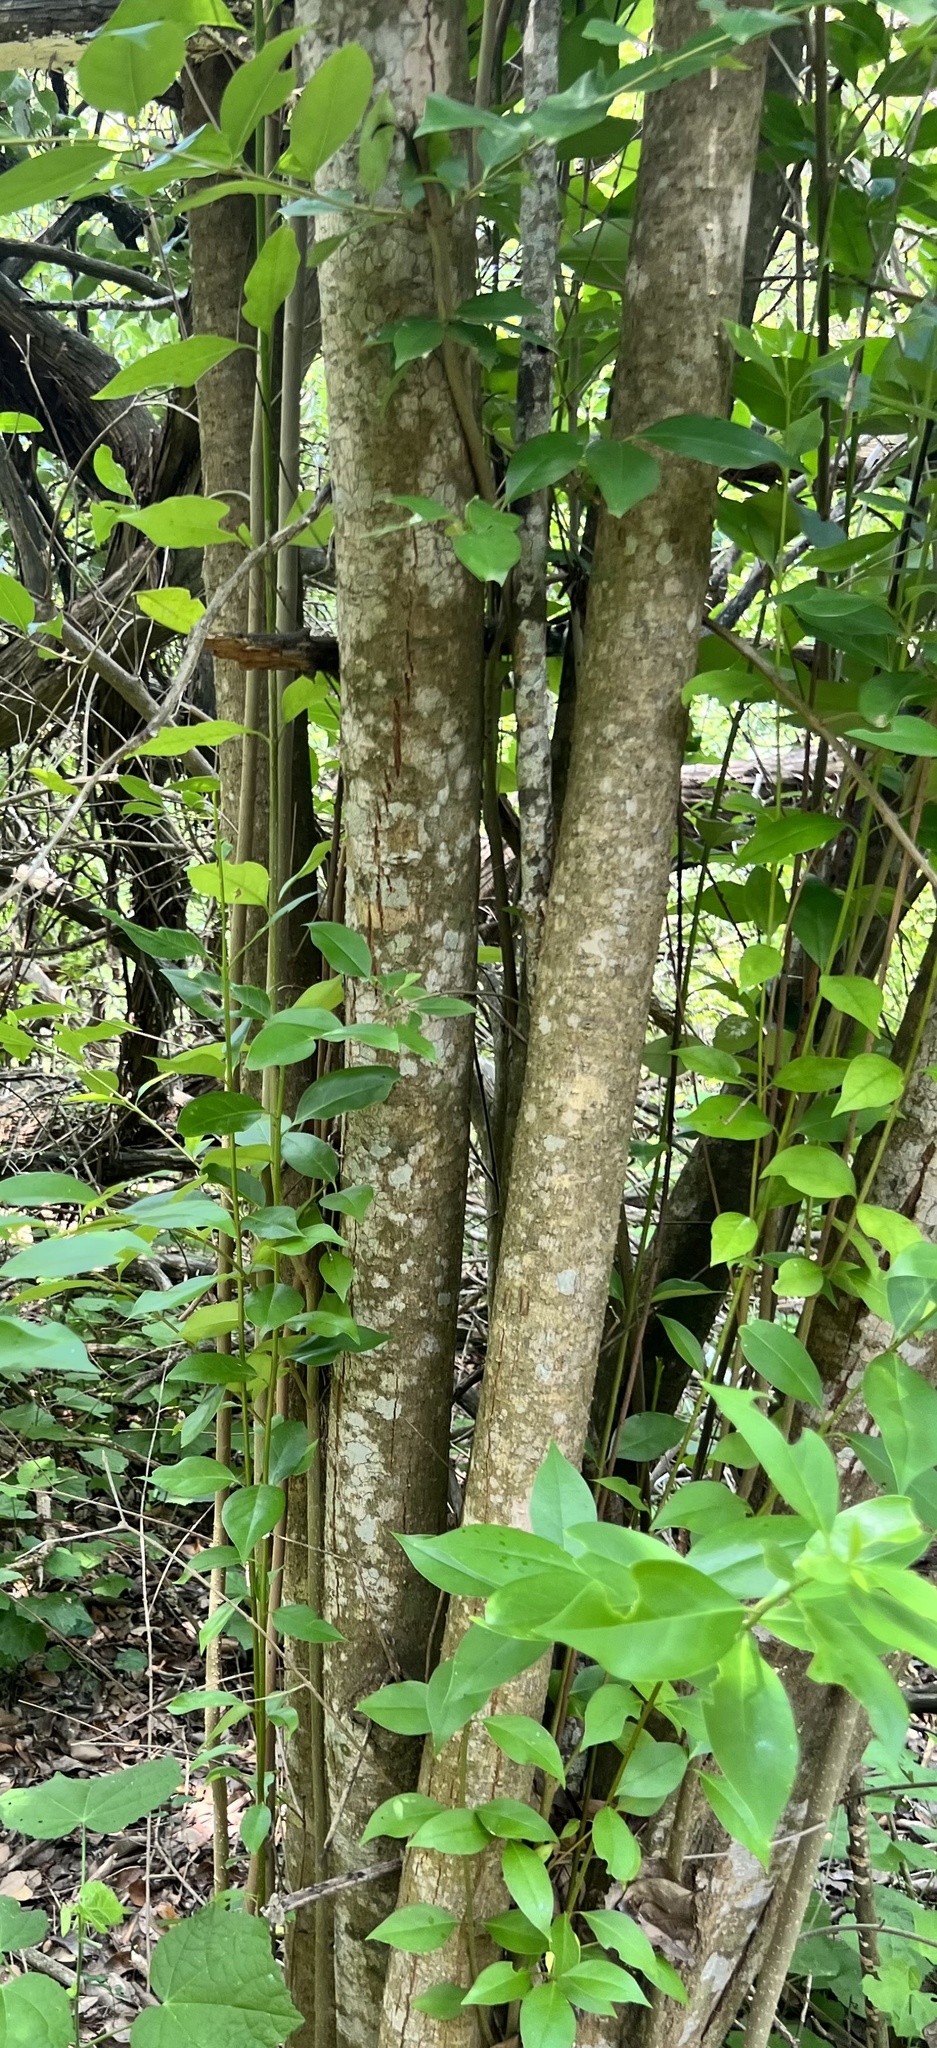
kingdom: Plantae
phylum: Tracheophyta
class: Magnoliopsida
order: Lamiales
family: Oleaceae
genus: Ligustrum
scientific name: Ligustrum lucidum
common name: Glossy privet
